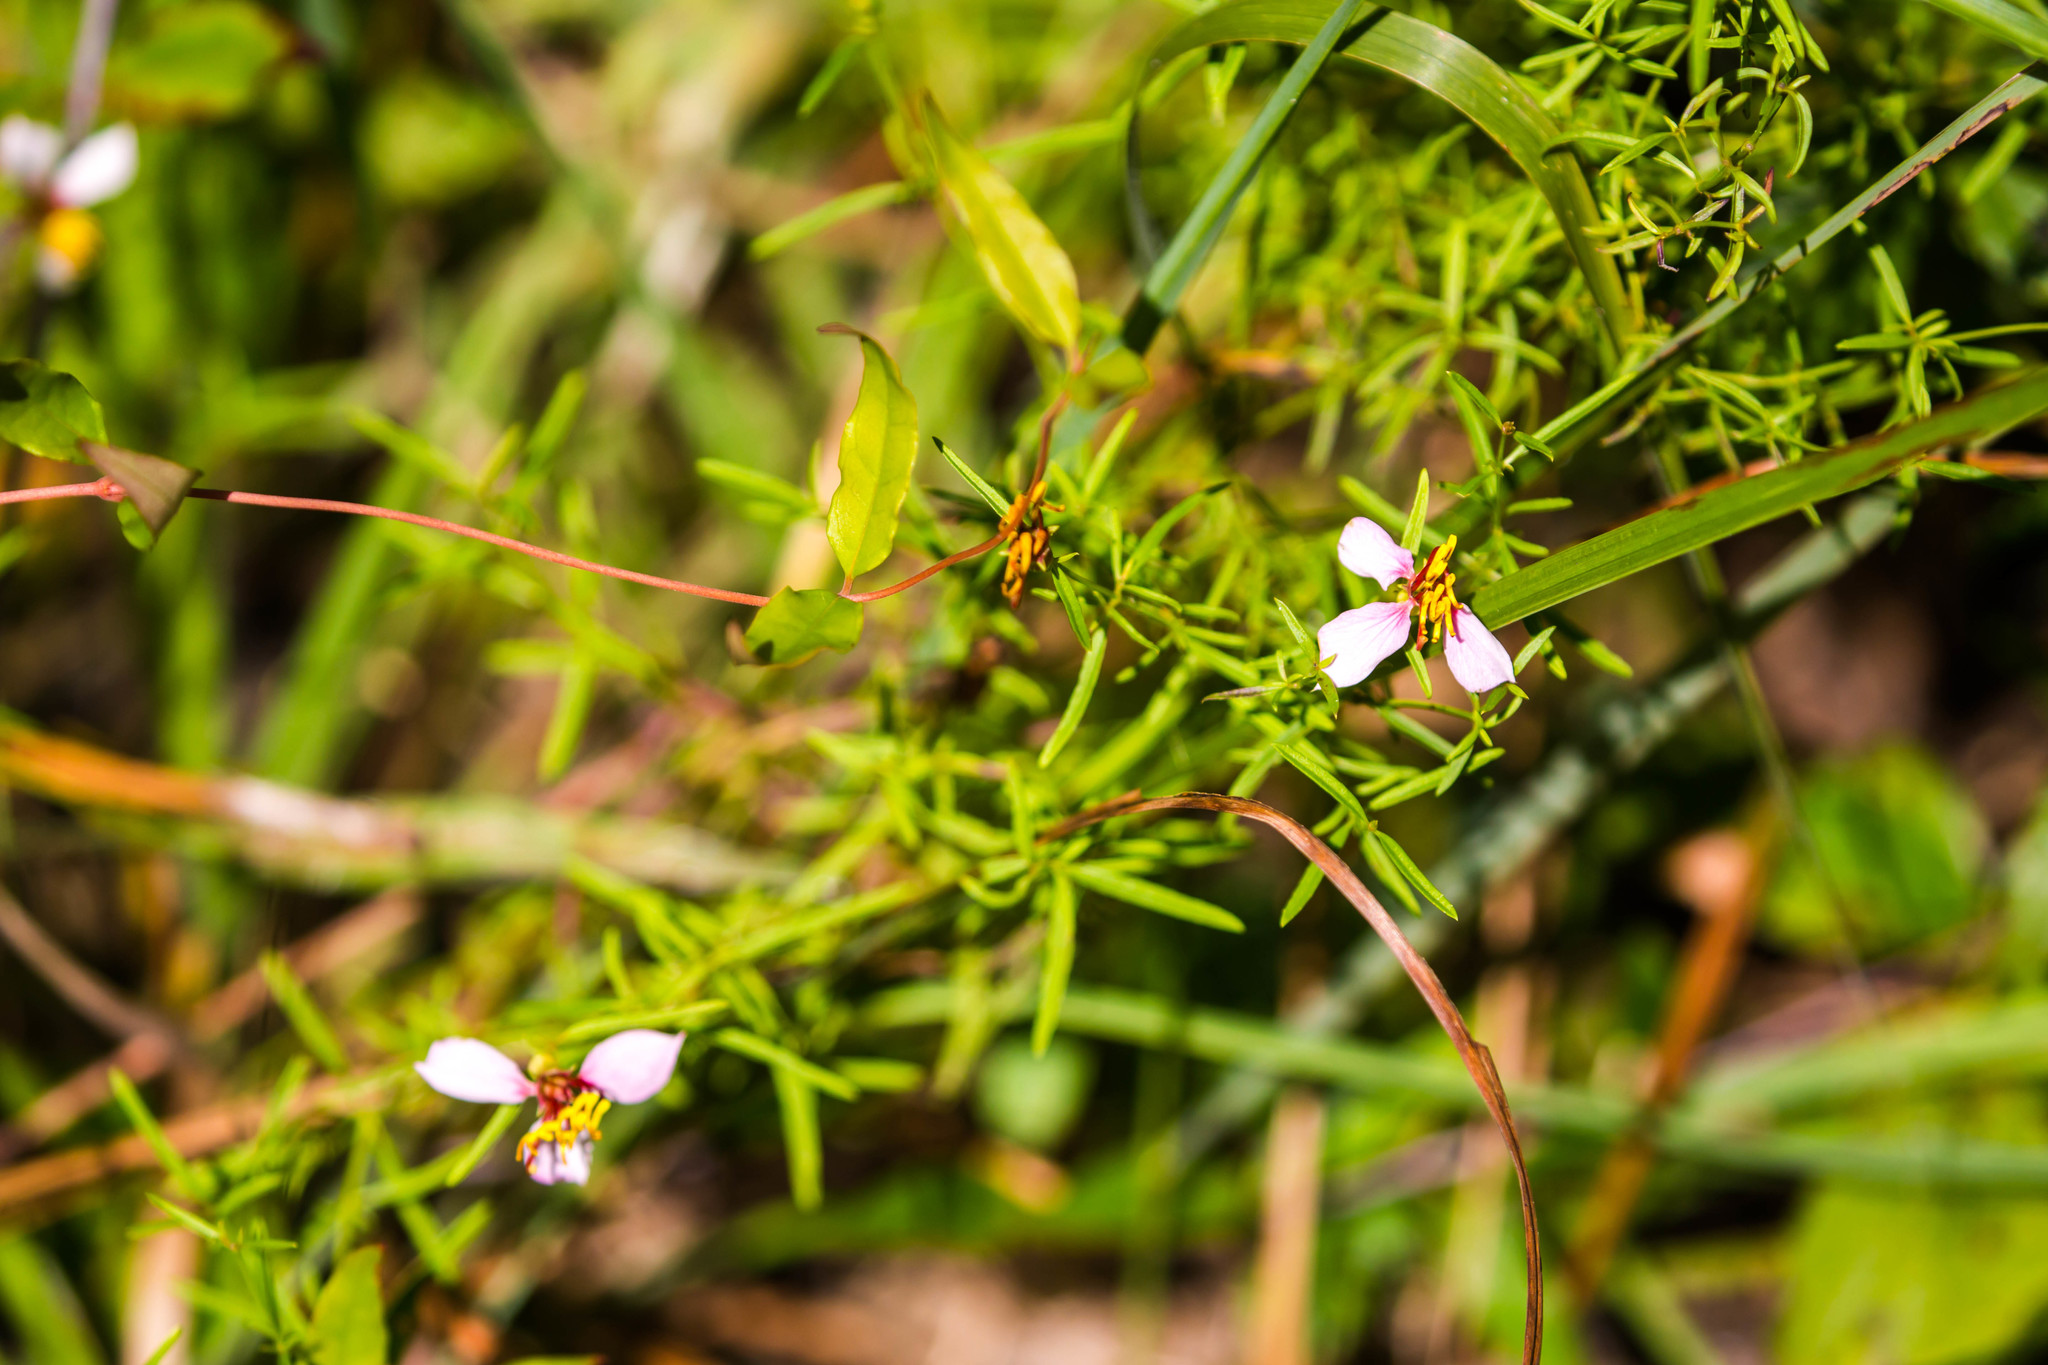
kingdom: Plantae
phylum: Tracheophyta
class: Magnoliopsida
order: Myrtales
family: Melastomataceae
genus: Rhexia
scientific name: Rhexia mariana
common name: Dull meadow-pitcher
